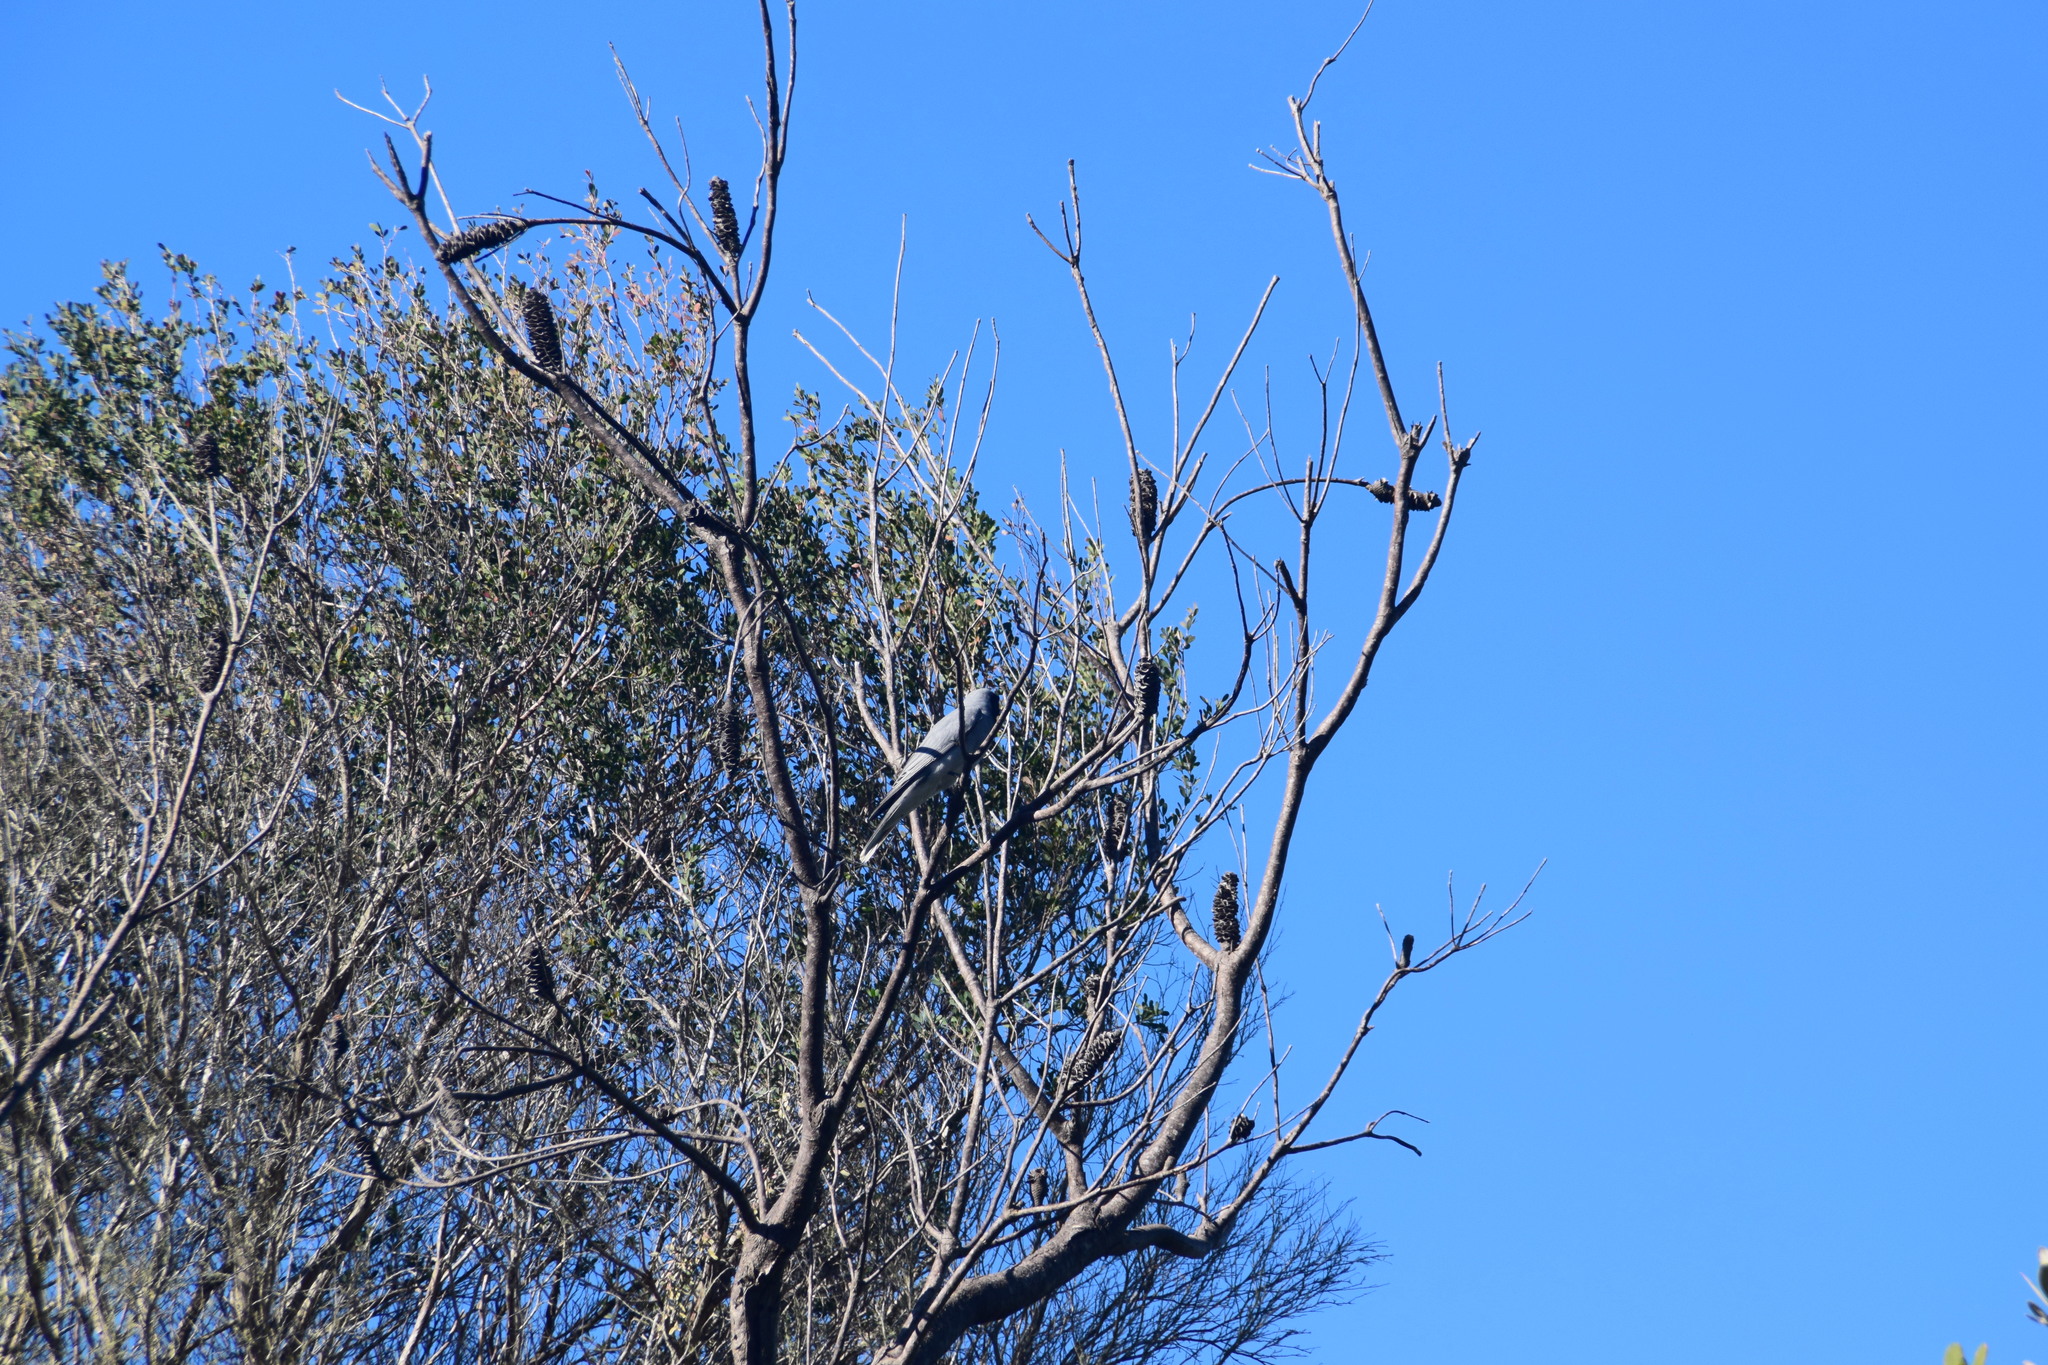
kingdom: Animalia
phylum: Chordata
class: Aves
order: Passeriformes
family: Campephagidae
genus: Coracina
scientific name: Coracina novaehollandiae
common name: Black-faced cuckooshrike
